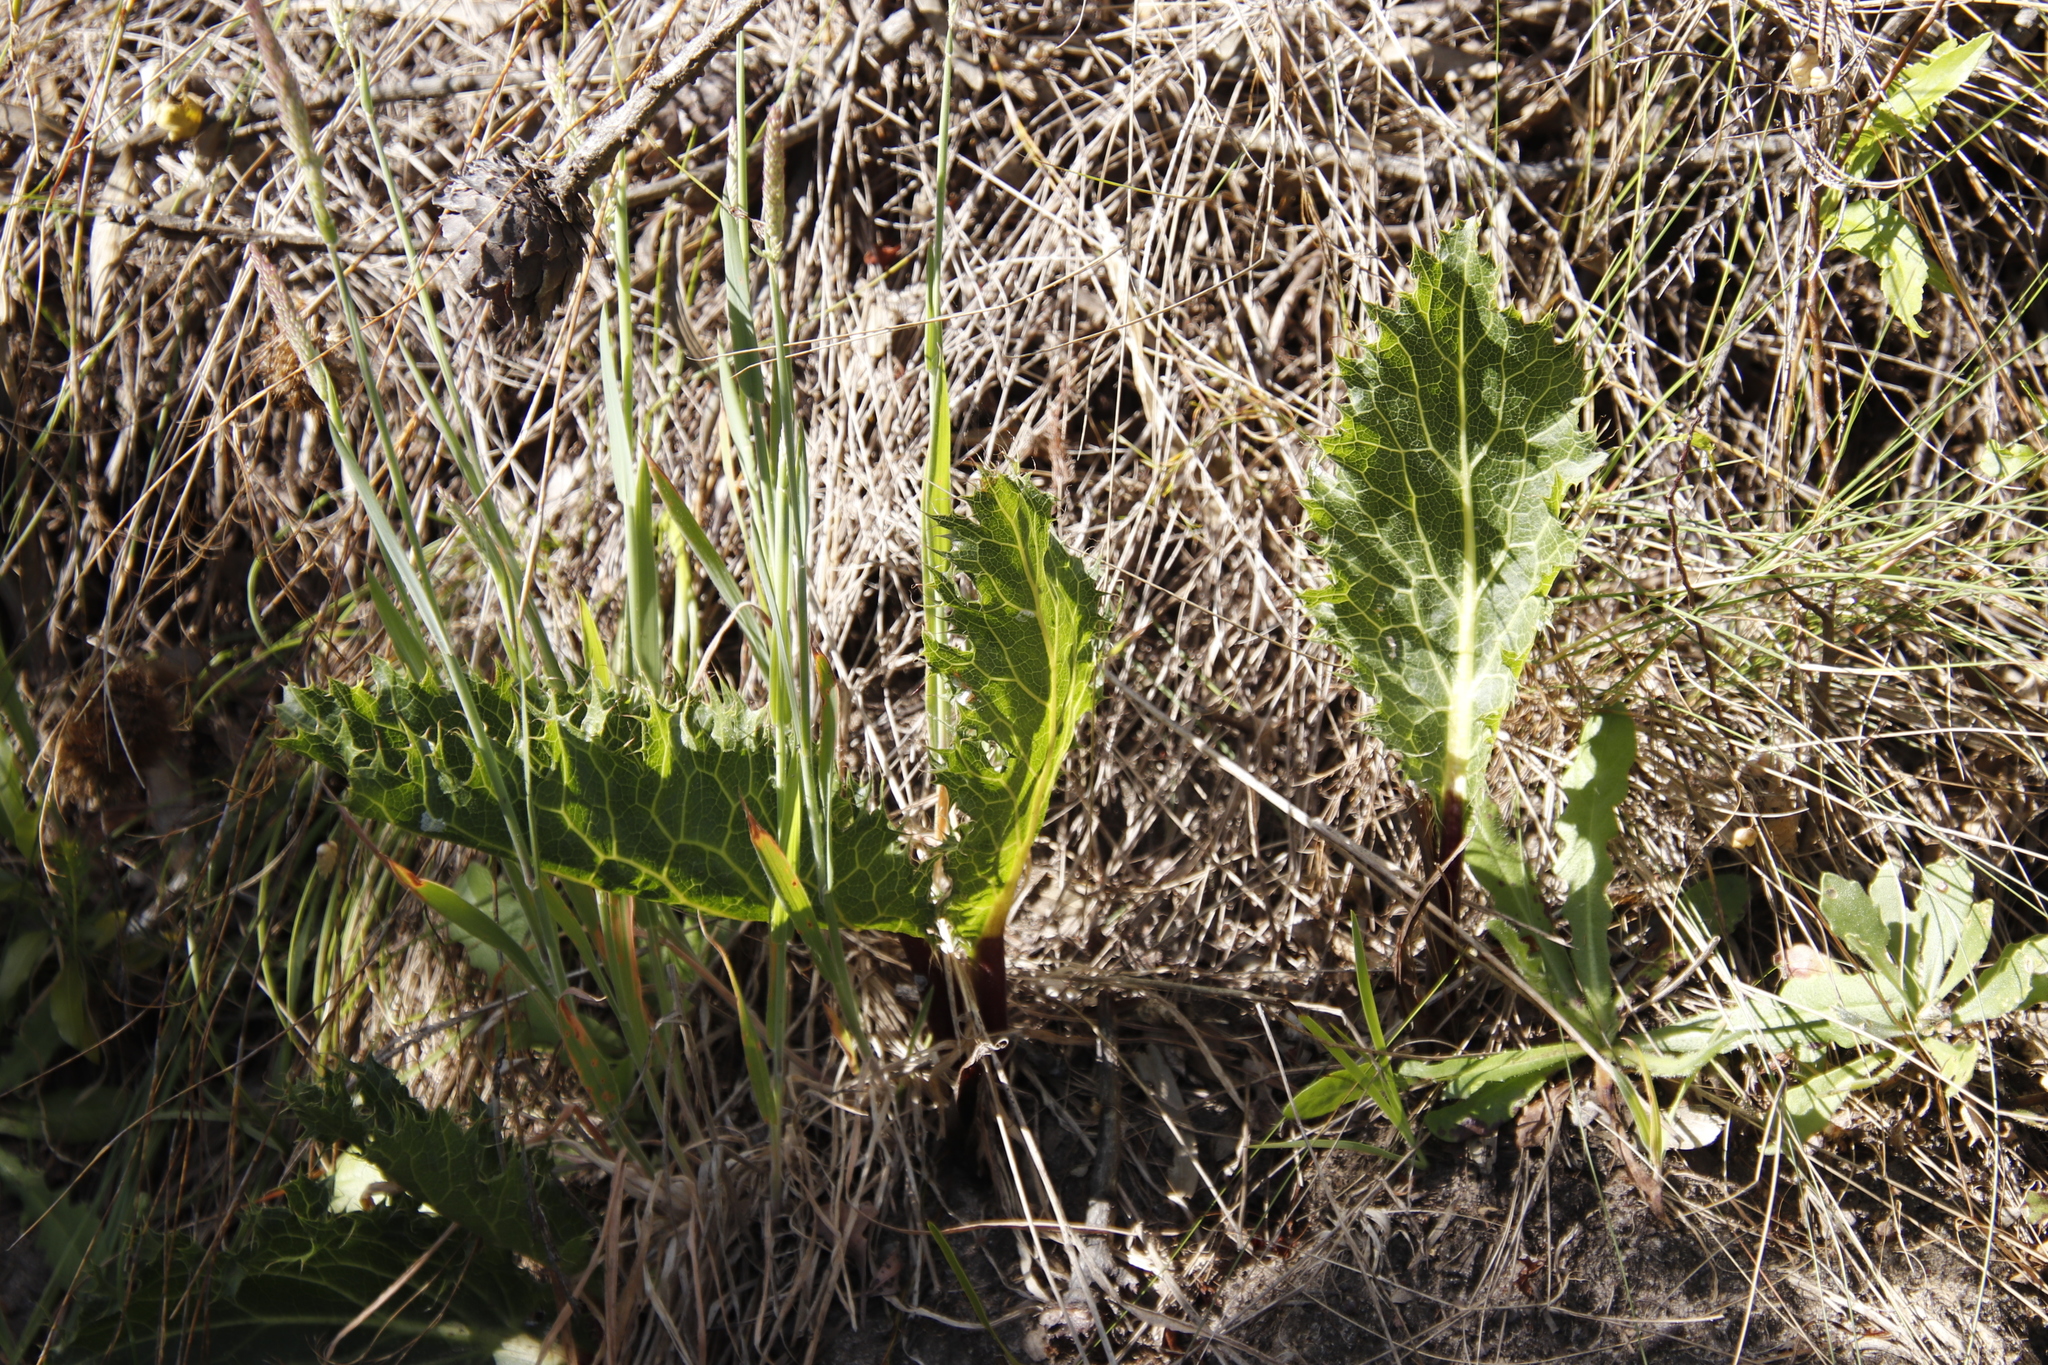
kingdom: Plantae
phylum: Tracheophyta
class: Magnoliopsida
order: Apiales
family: Apiaceae
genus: Lichtensteinia
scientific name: Lichtensteinia lacera
